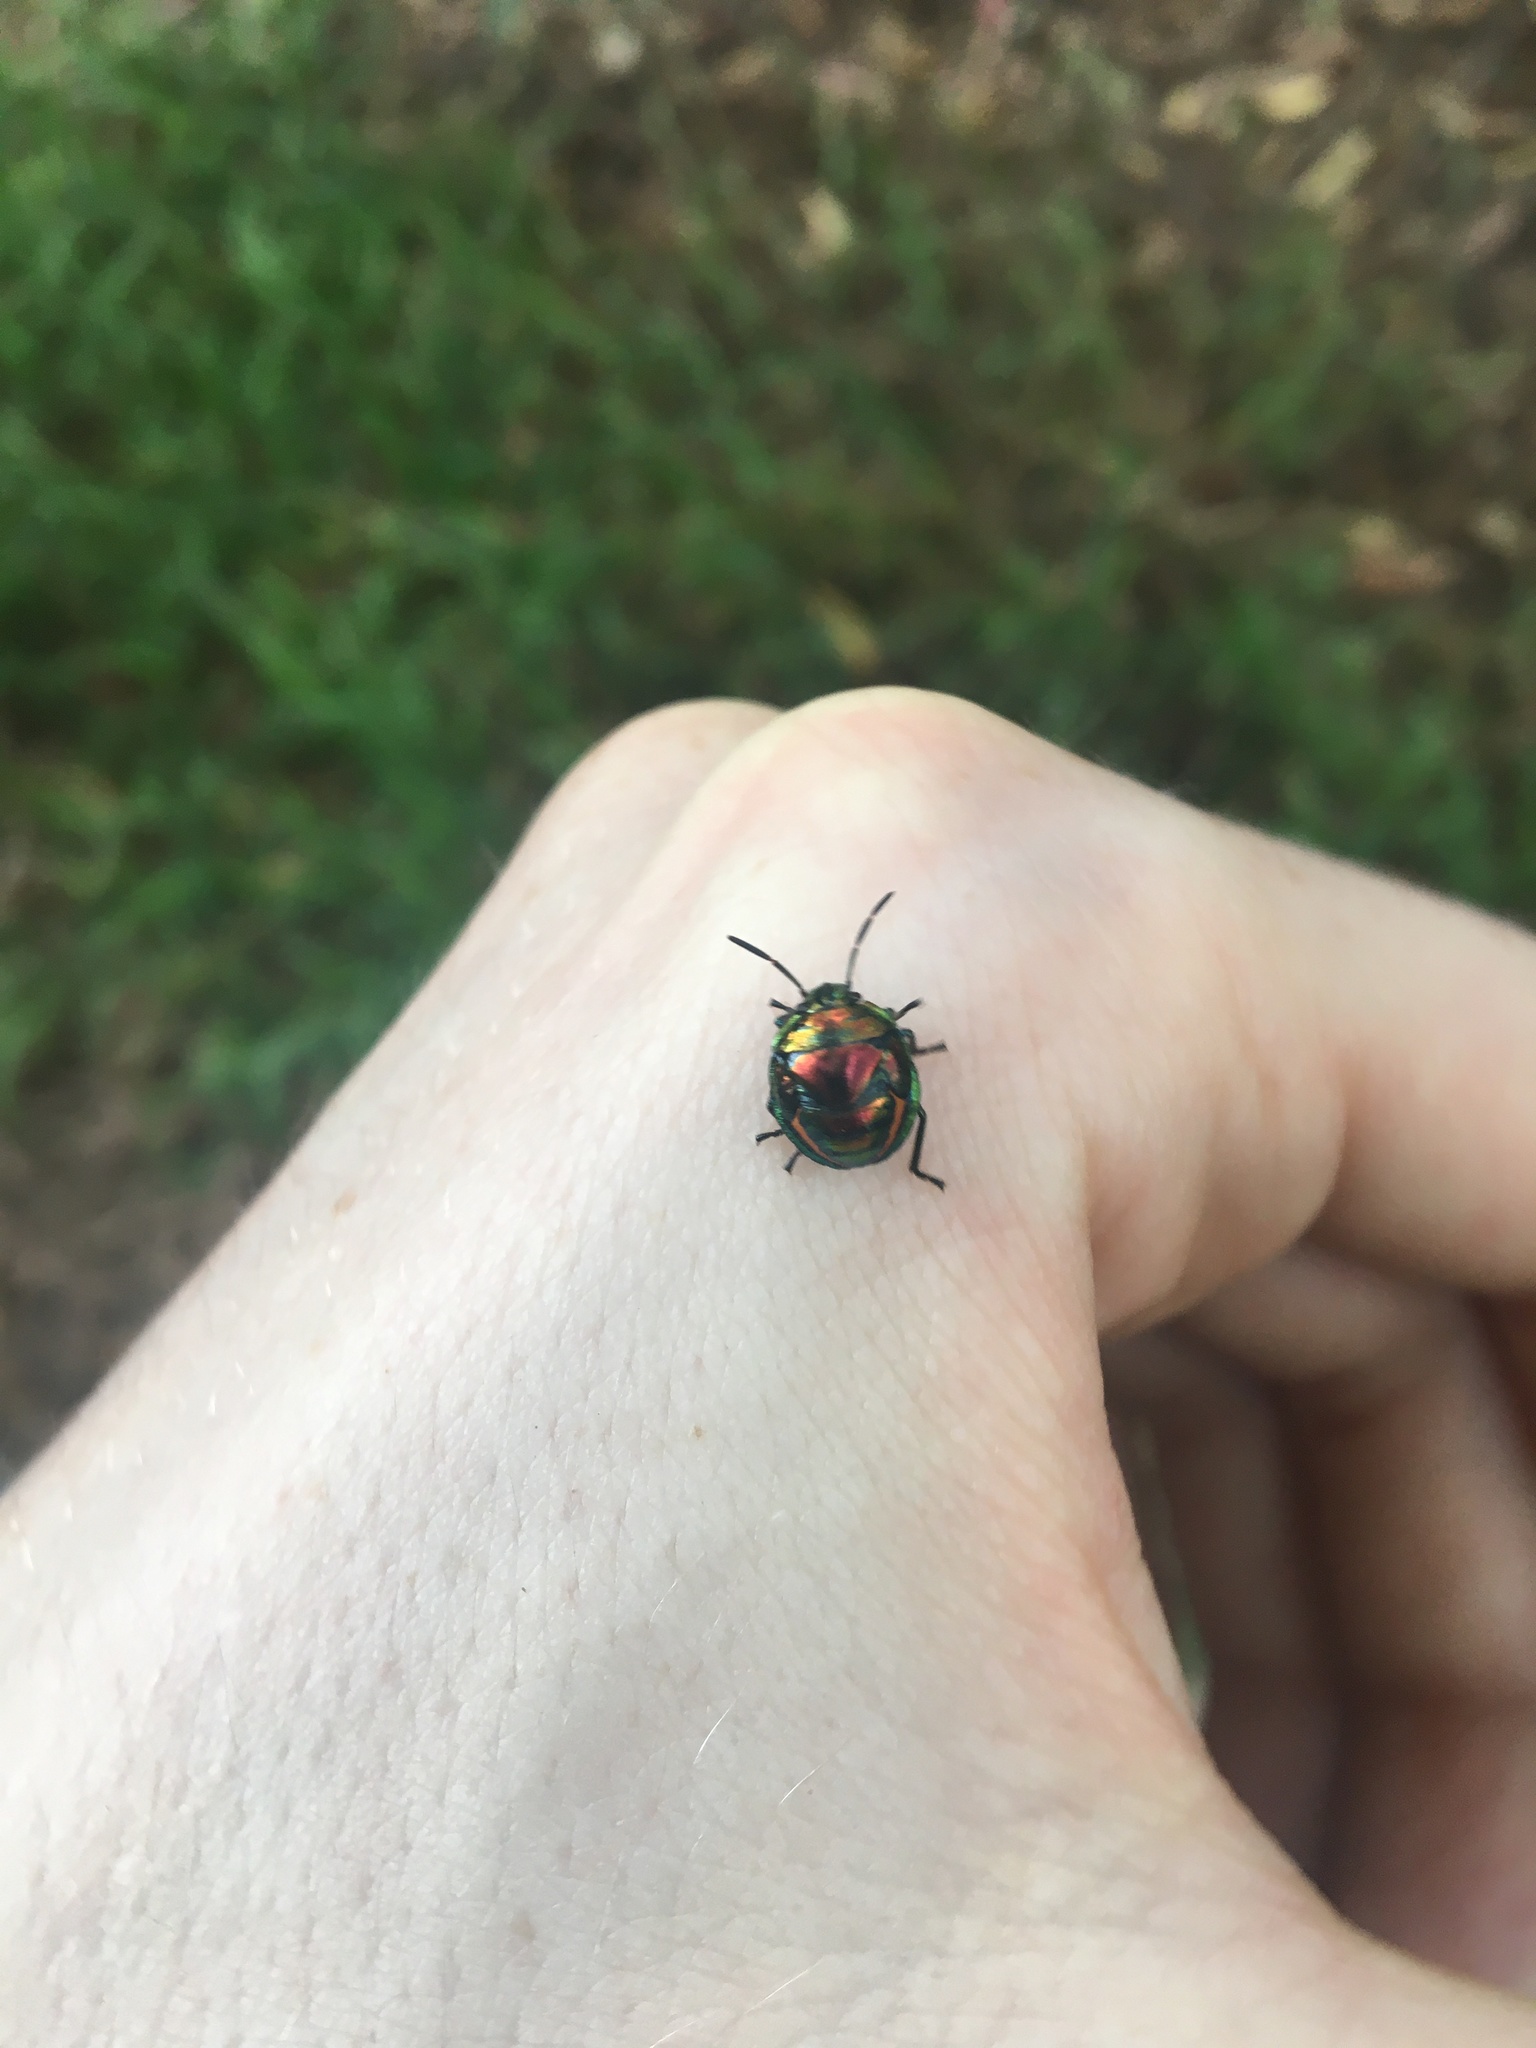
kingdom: Animalia
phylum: Arthropoda
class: Insecta
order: Hemiptera
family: Scutelleridae
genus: Lampromicra
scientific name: Lampromicra senator
